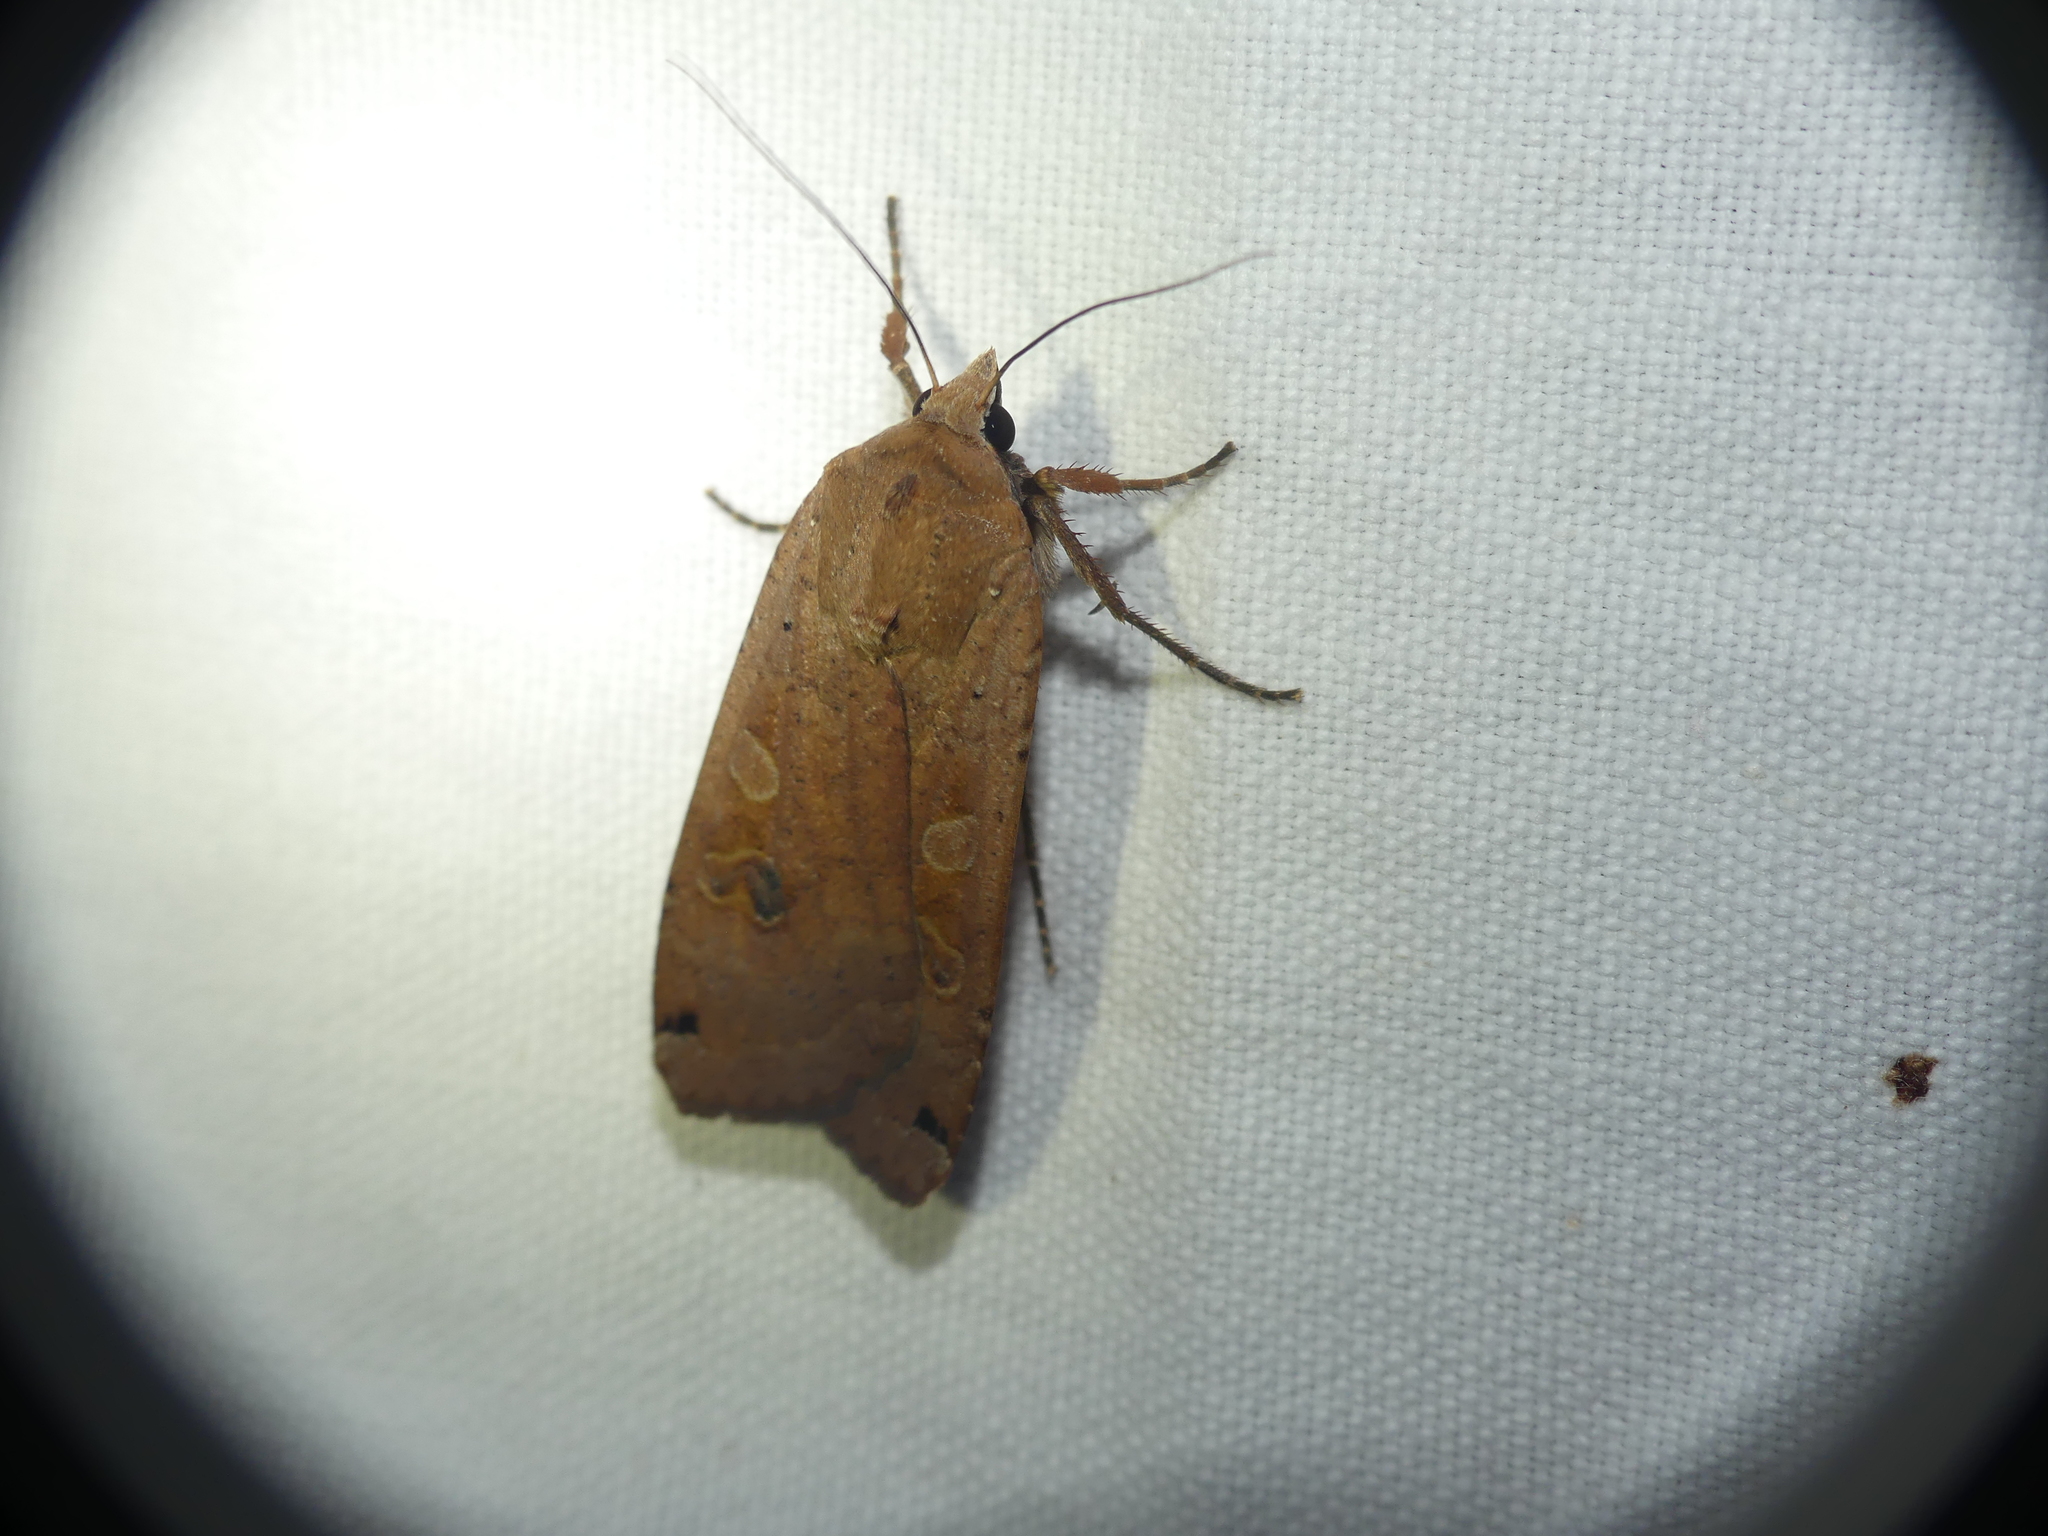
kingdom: Animalia
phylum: Arthropoda
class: Insecta
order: Lepidoptera
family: Noctuidae
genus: Noctua
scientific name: Noctua pronuba
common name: Large yellow underwing
